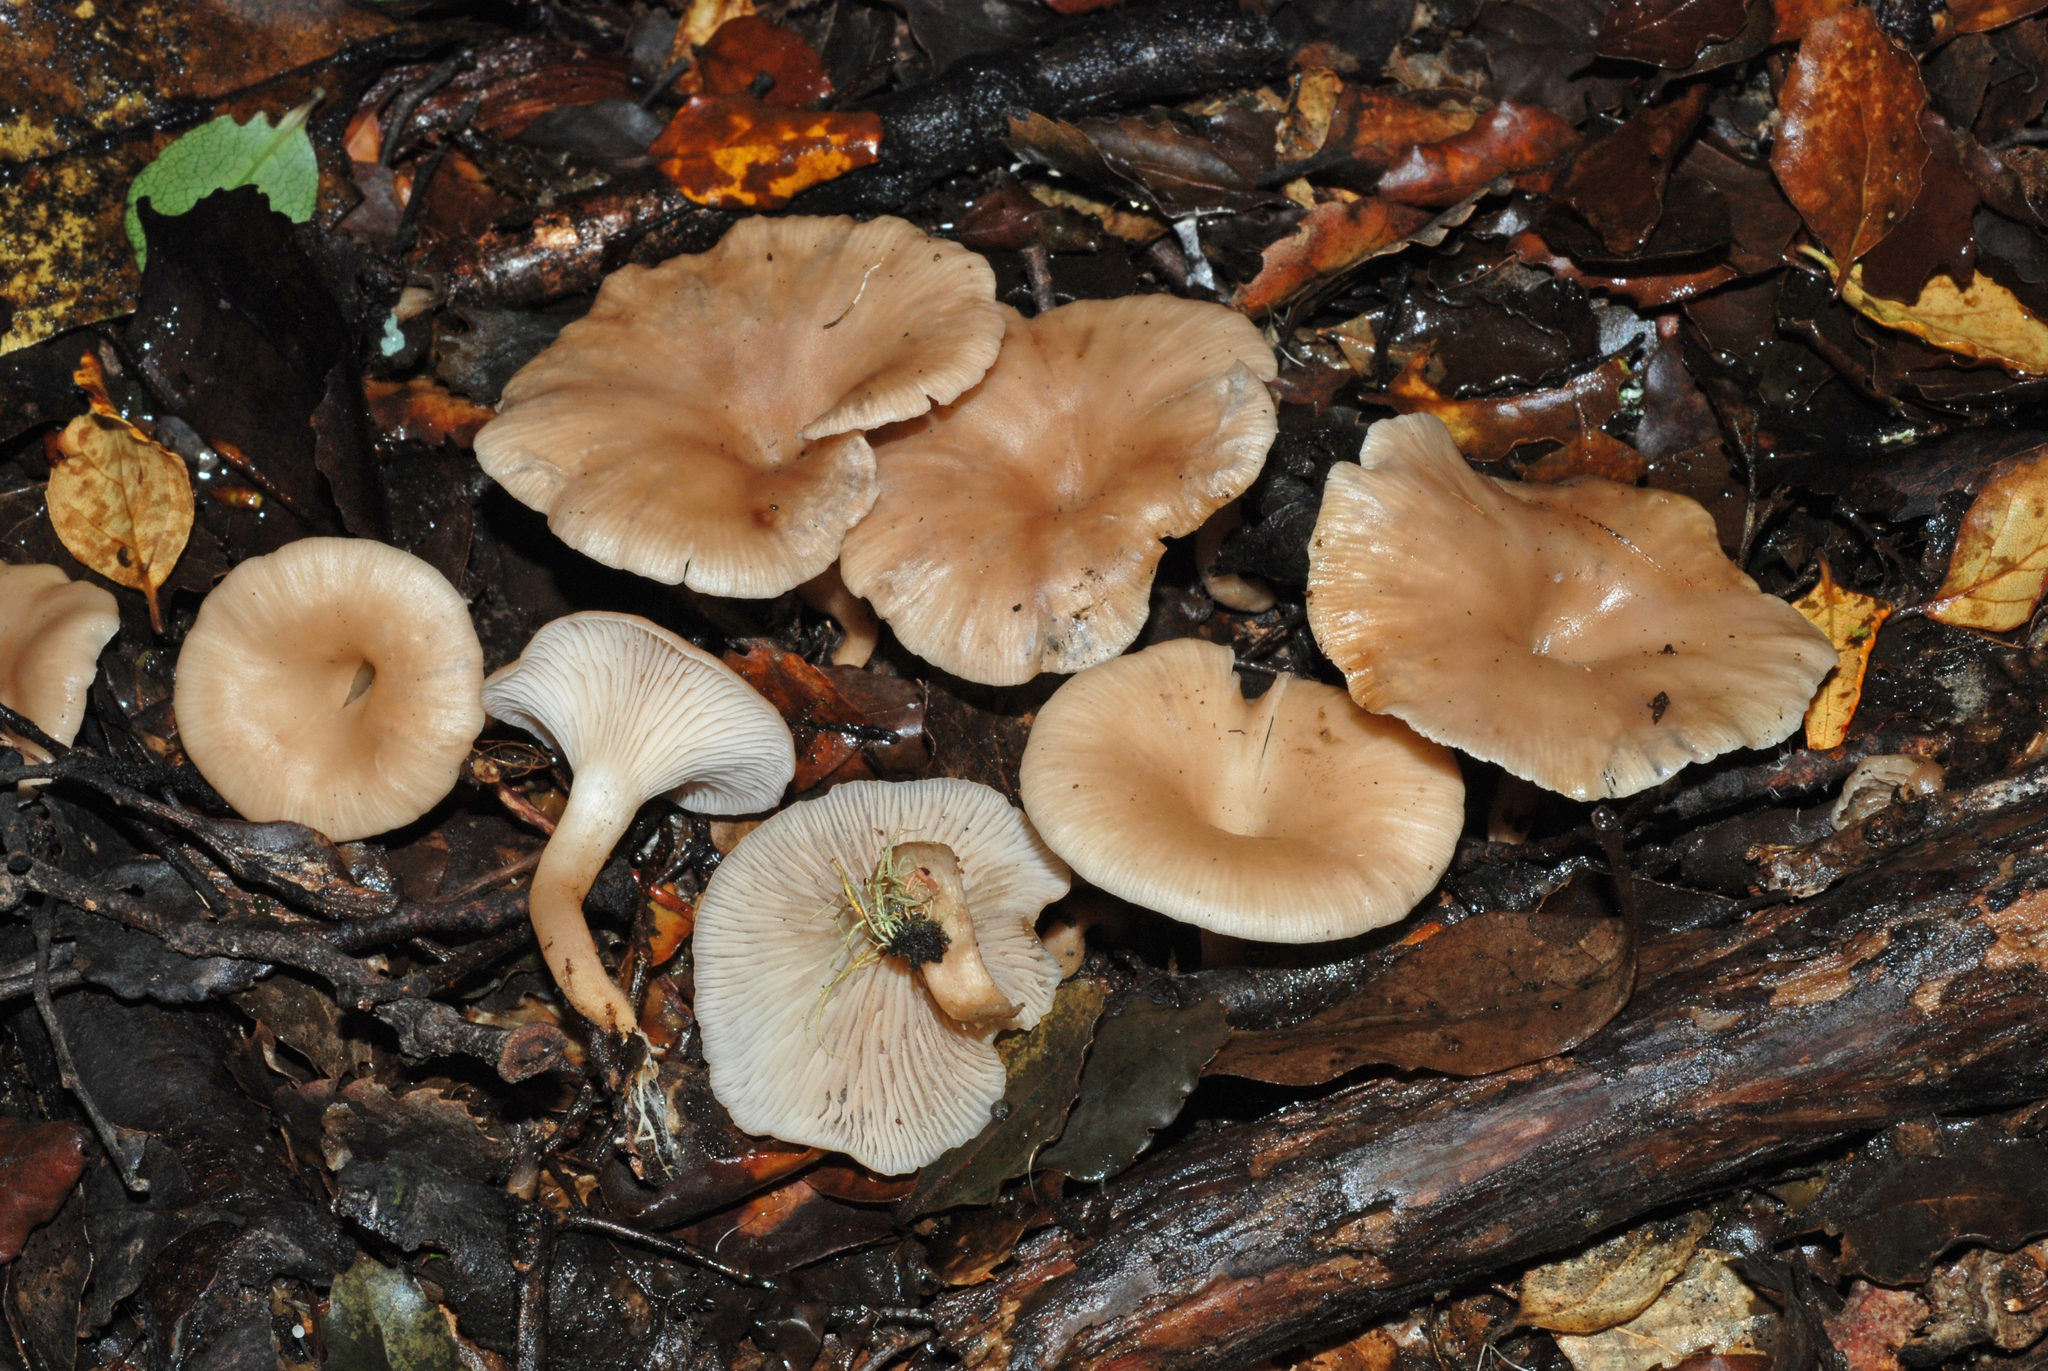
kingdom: Fungi
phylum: Basidiomycota
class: Agaricomycetes
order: Agaricales
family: Tricholomataceae
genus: Singerocybe
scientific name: Singerocybe clitocyboides
